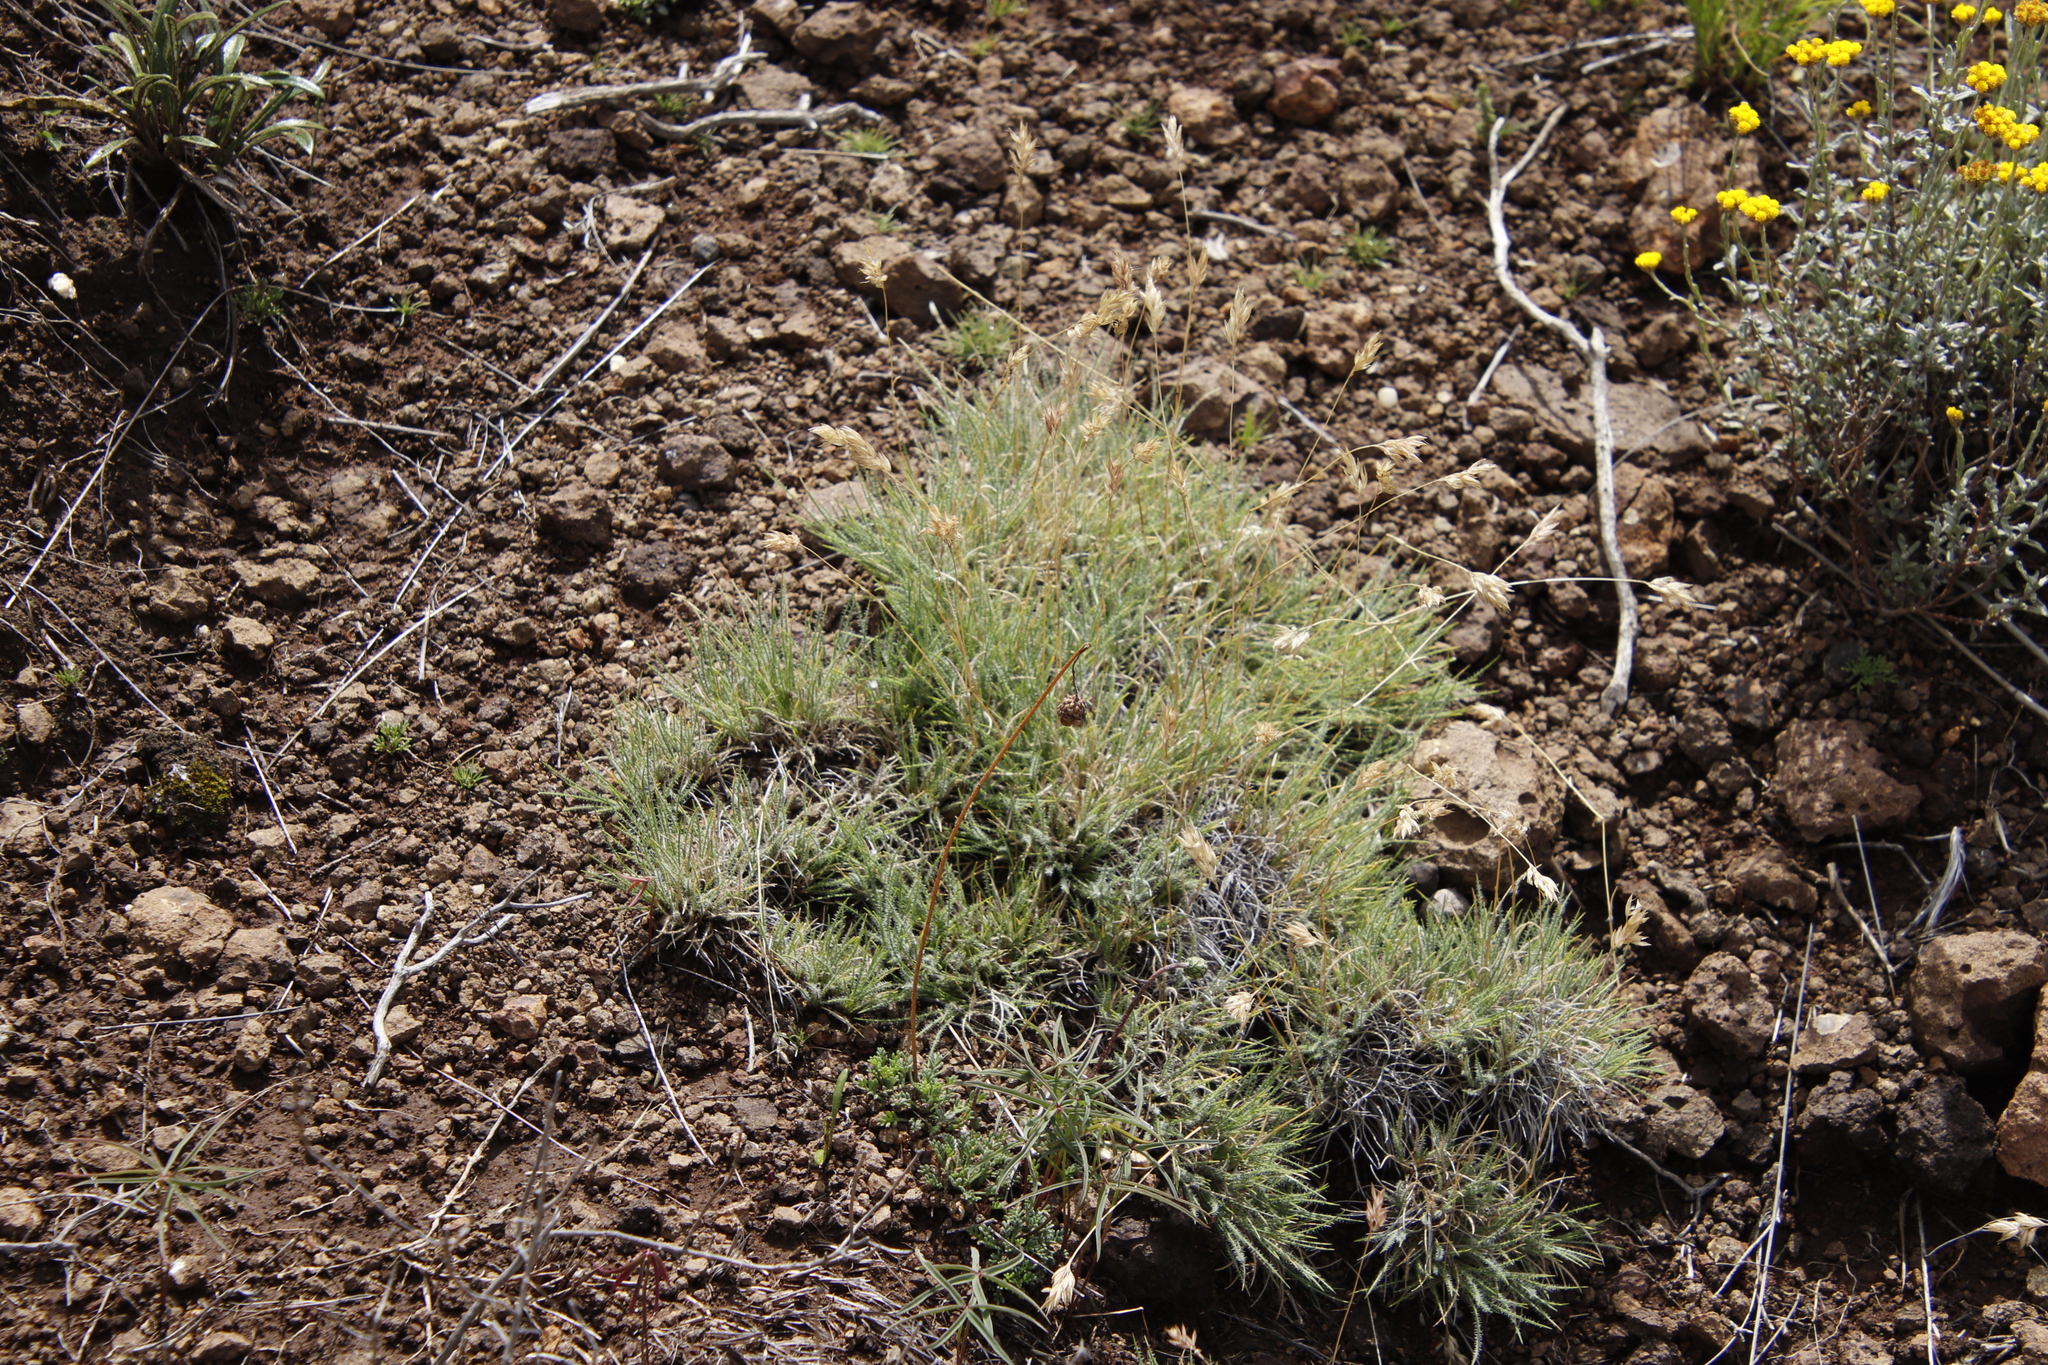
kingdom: Plantae
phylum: Tracheophyta
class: Liliopsida
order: Poales
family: Poaceae
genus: Tribolium
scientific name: Tribolium purpureum
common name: Grass
